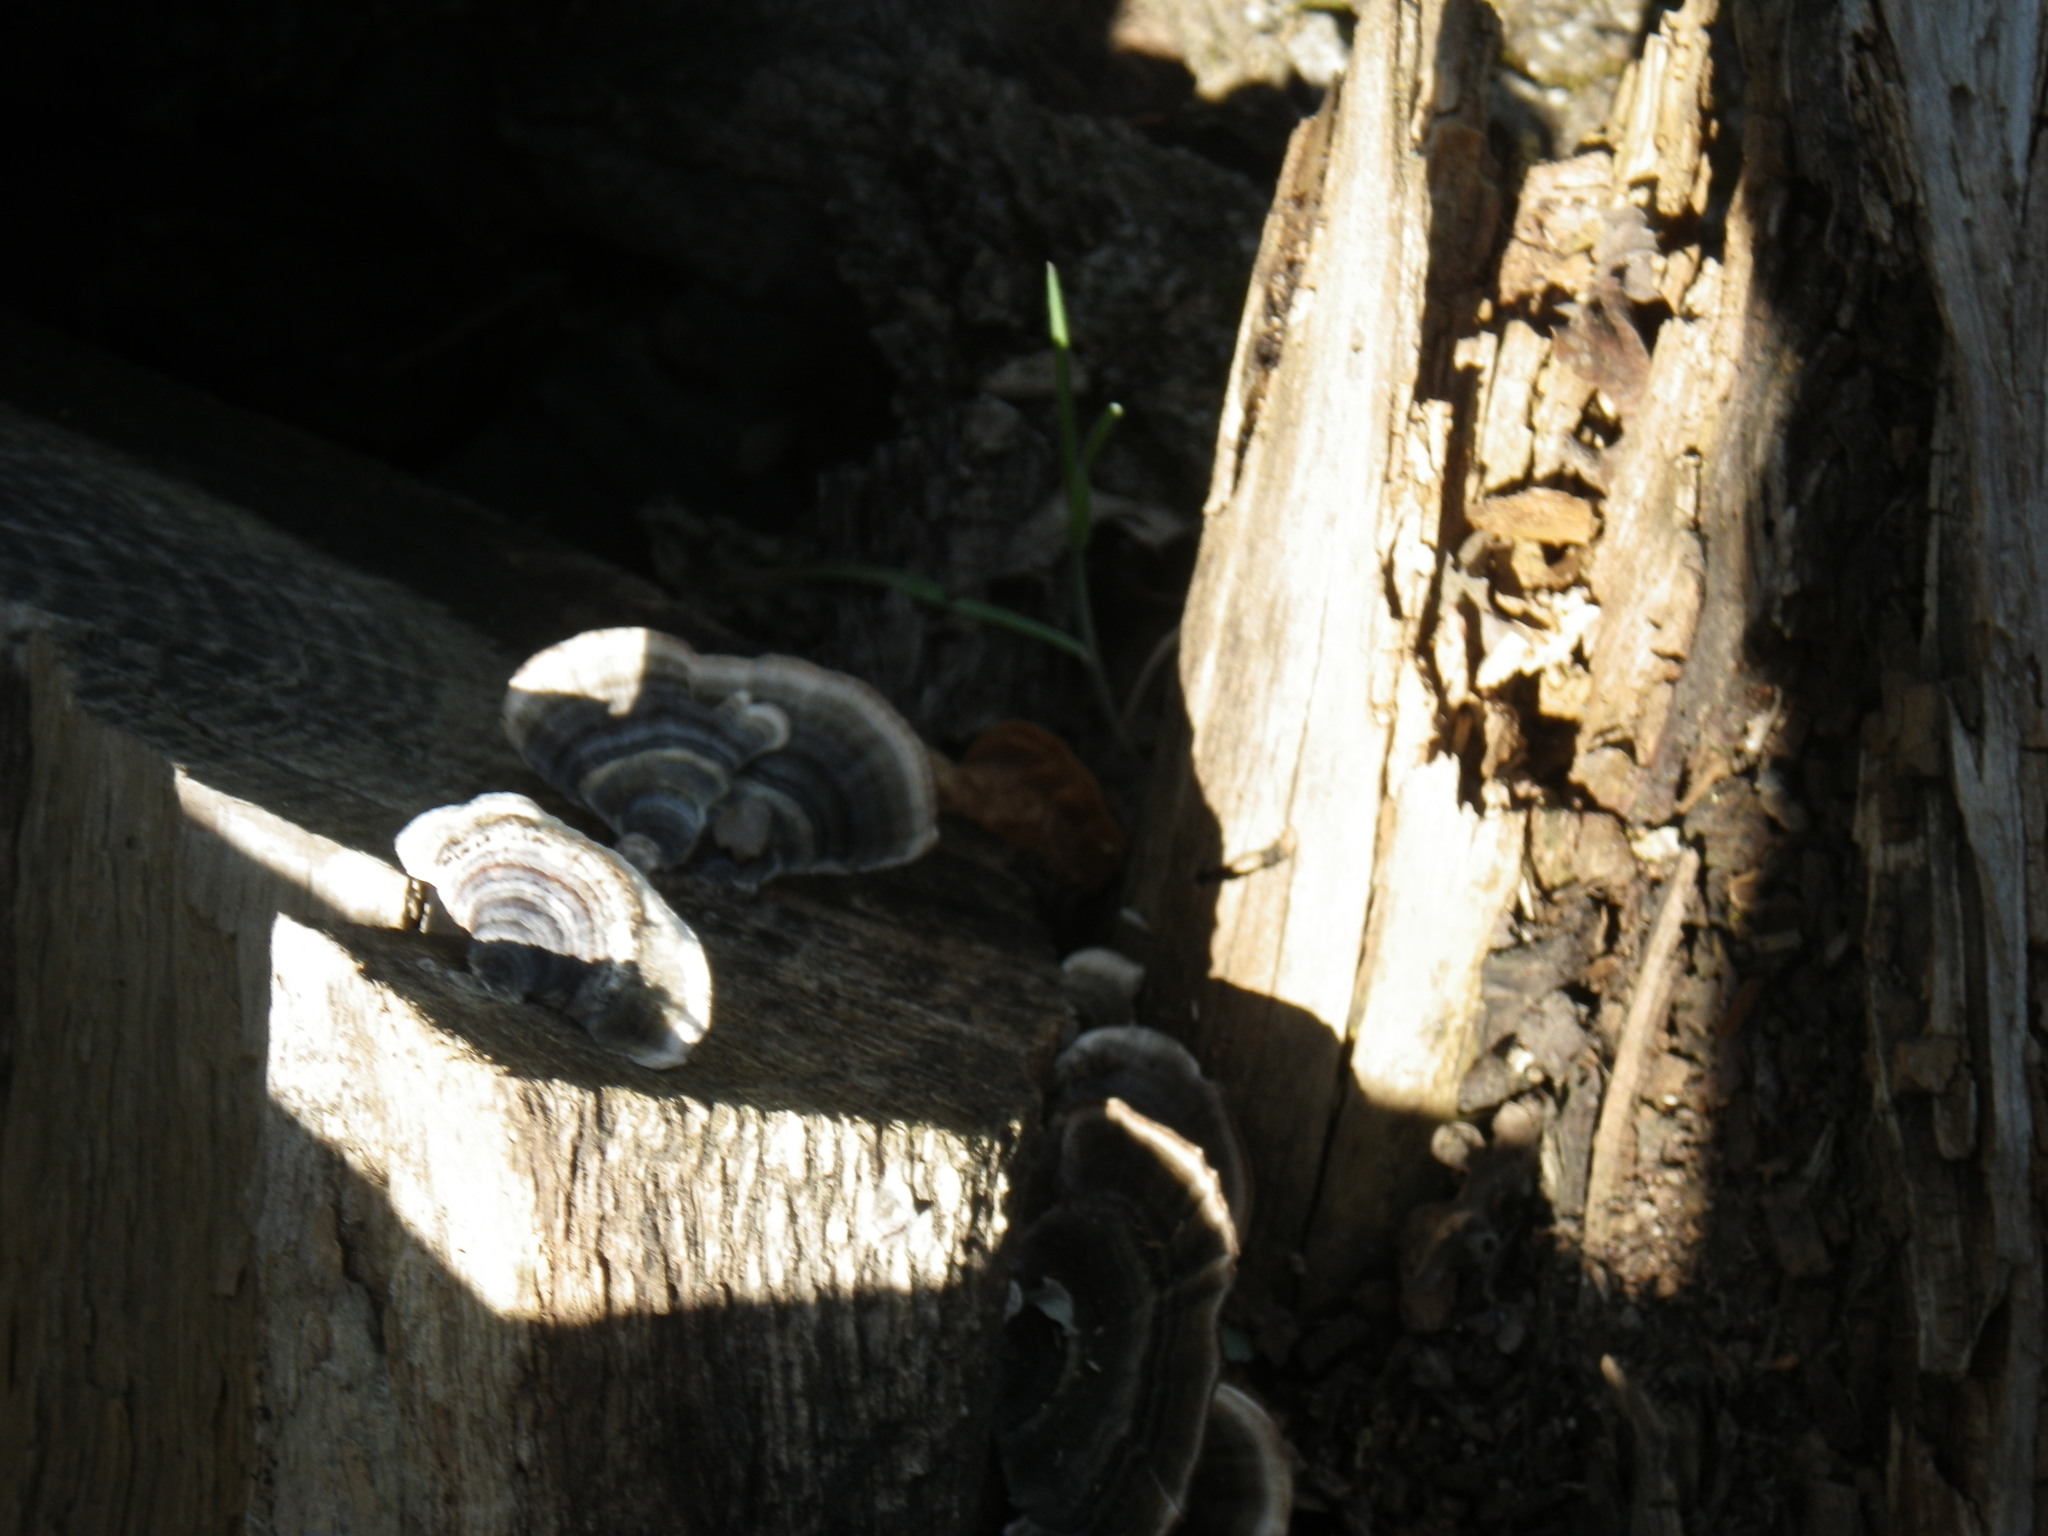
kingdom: Fungi
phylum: Basidiomycota
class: Agaricomycetes
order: Polyporales
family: Polyporaceae
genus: Trametes
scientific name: Trametes versicolor
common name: Turkeytail
